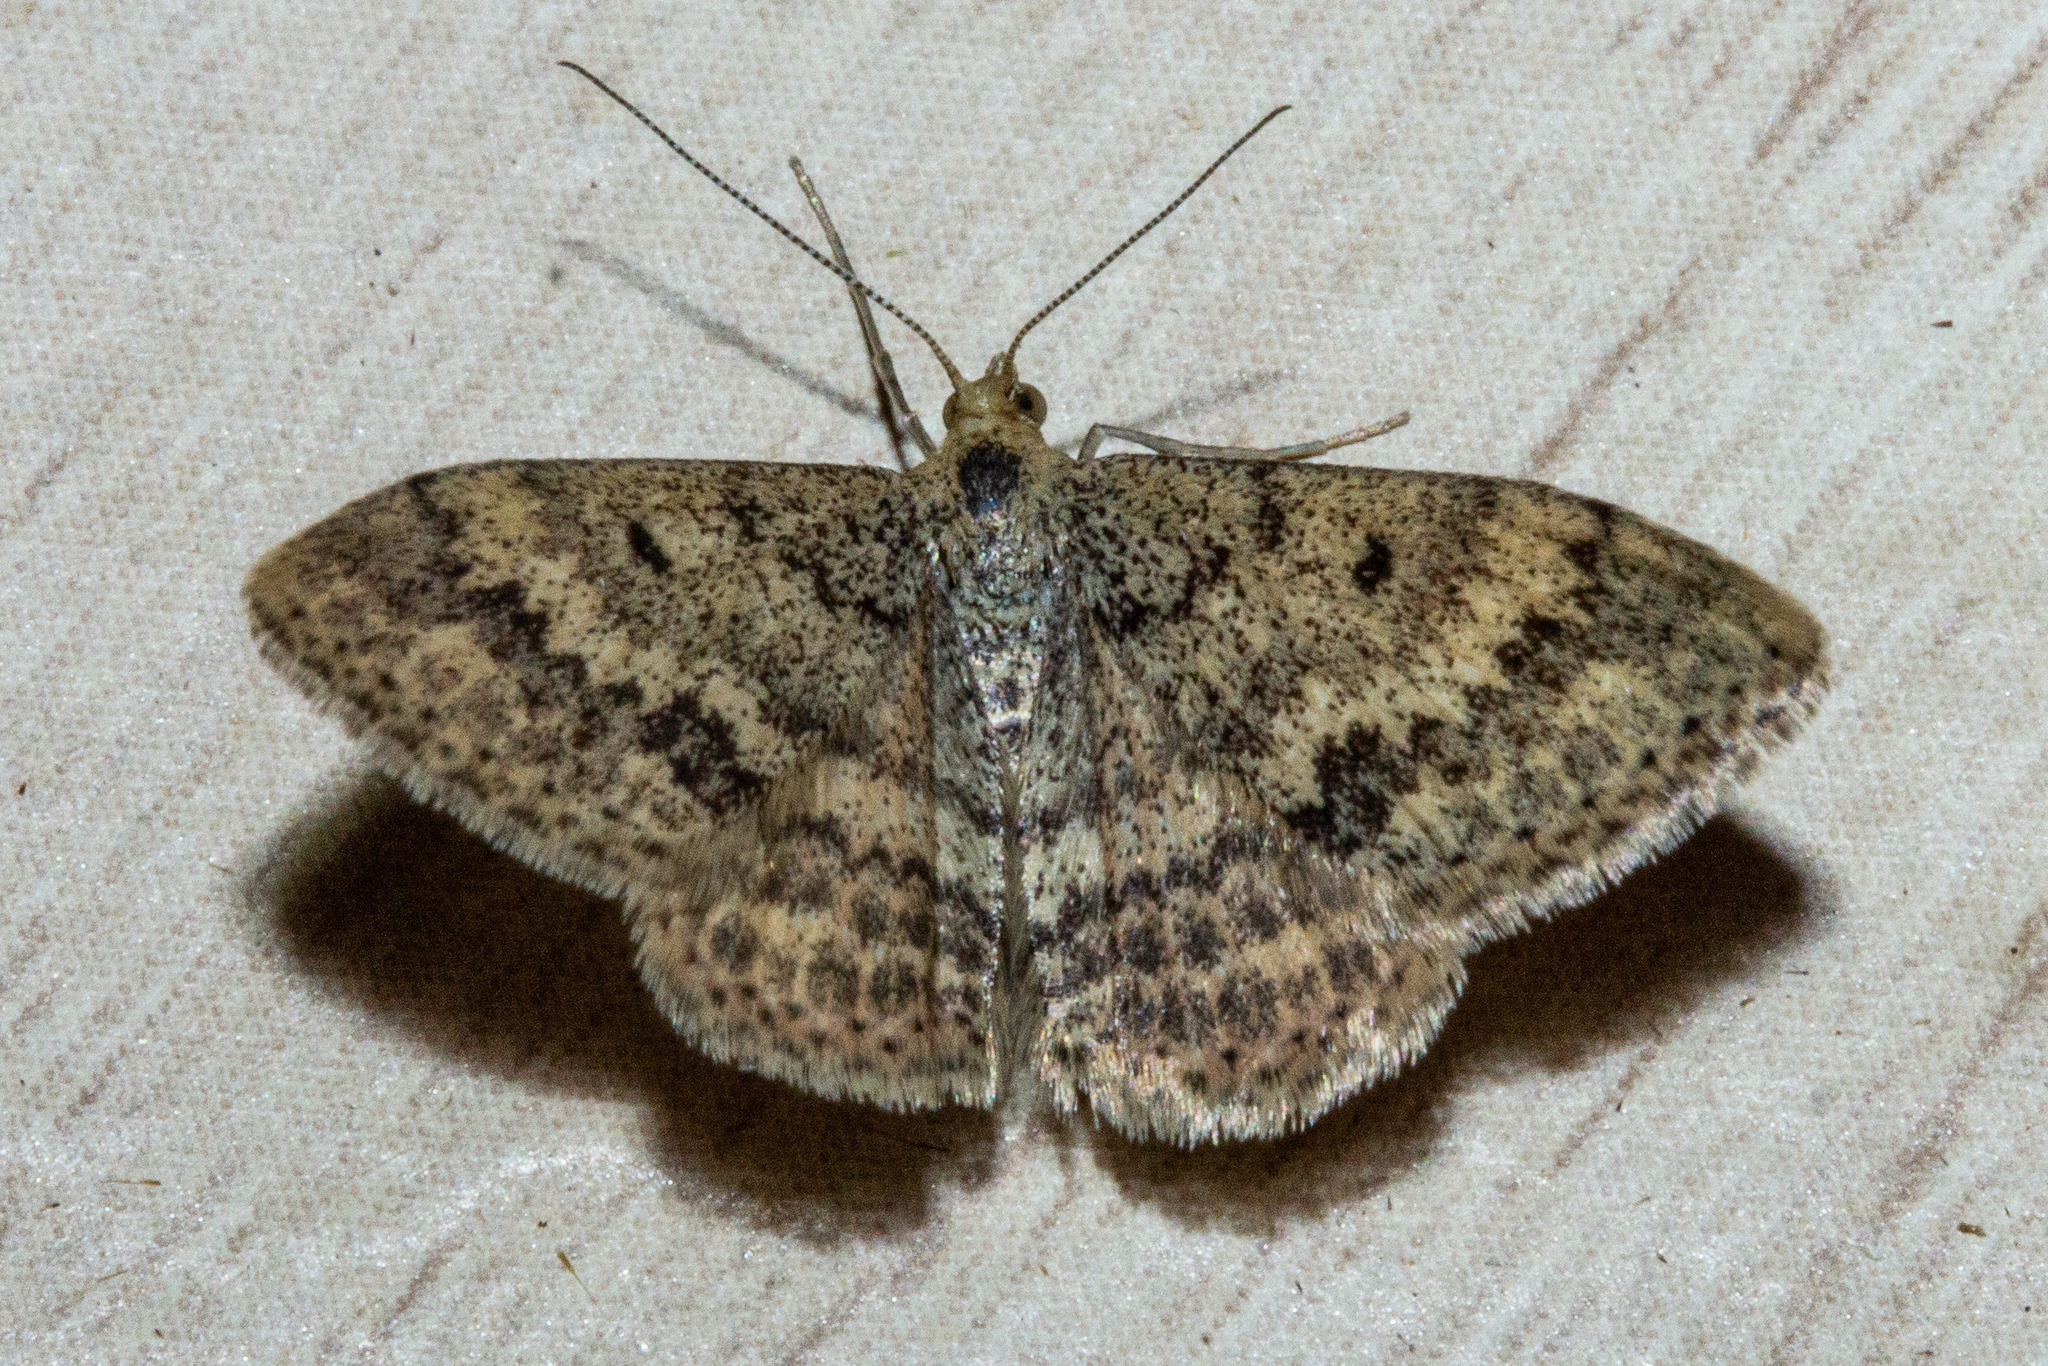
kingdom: Animalia
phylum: Arthropoda
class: Insecta
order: Lepidoptera
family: Geometridae
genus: Scopula
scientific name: Scopula rubraria
